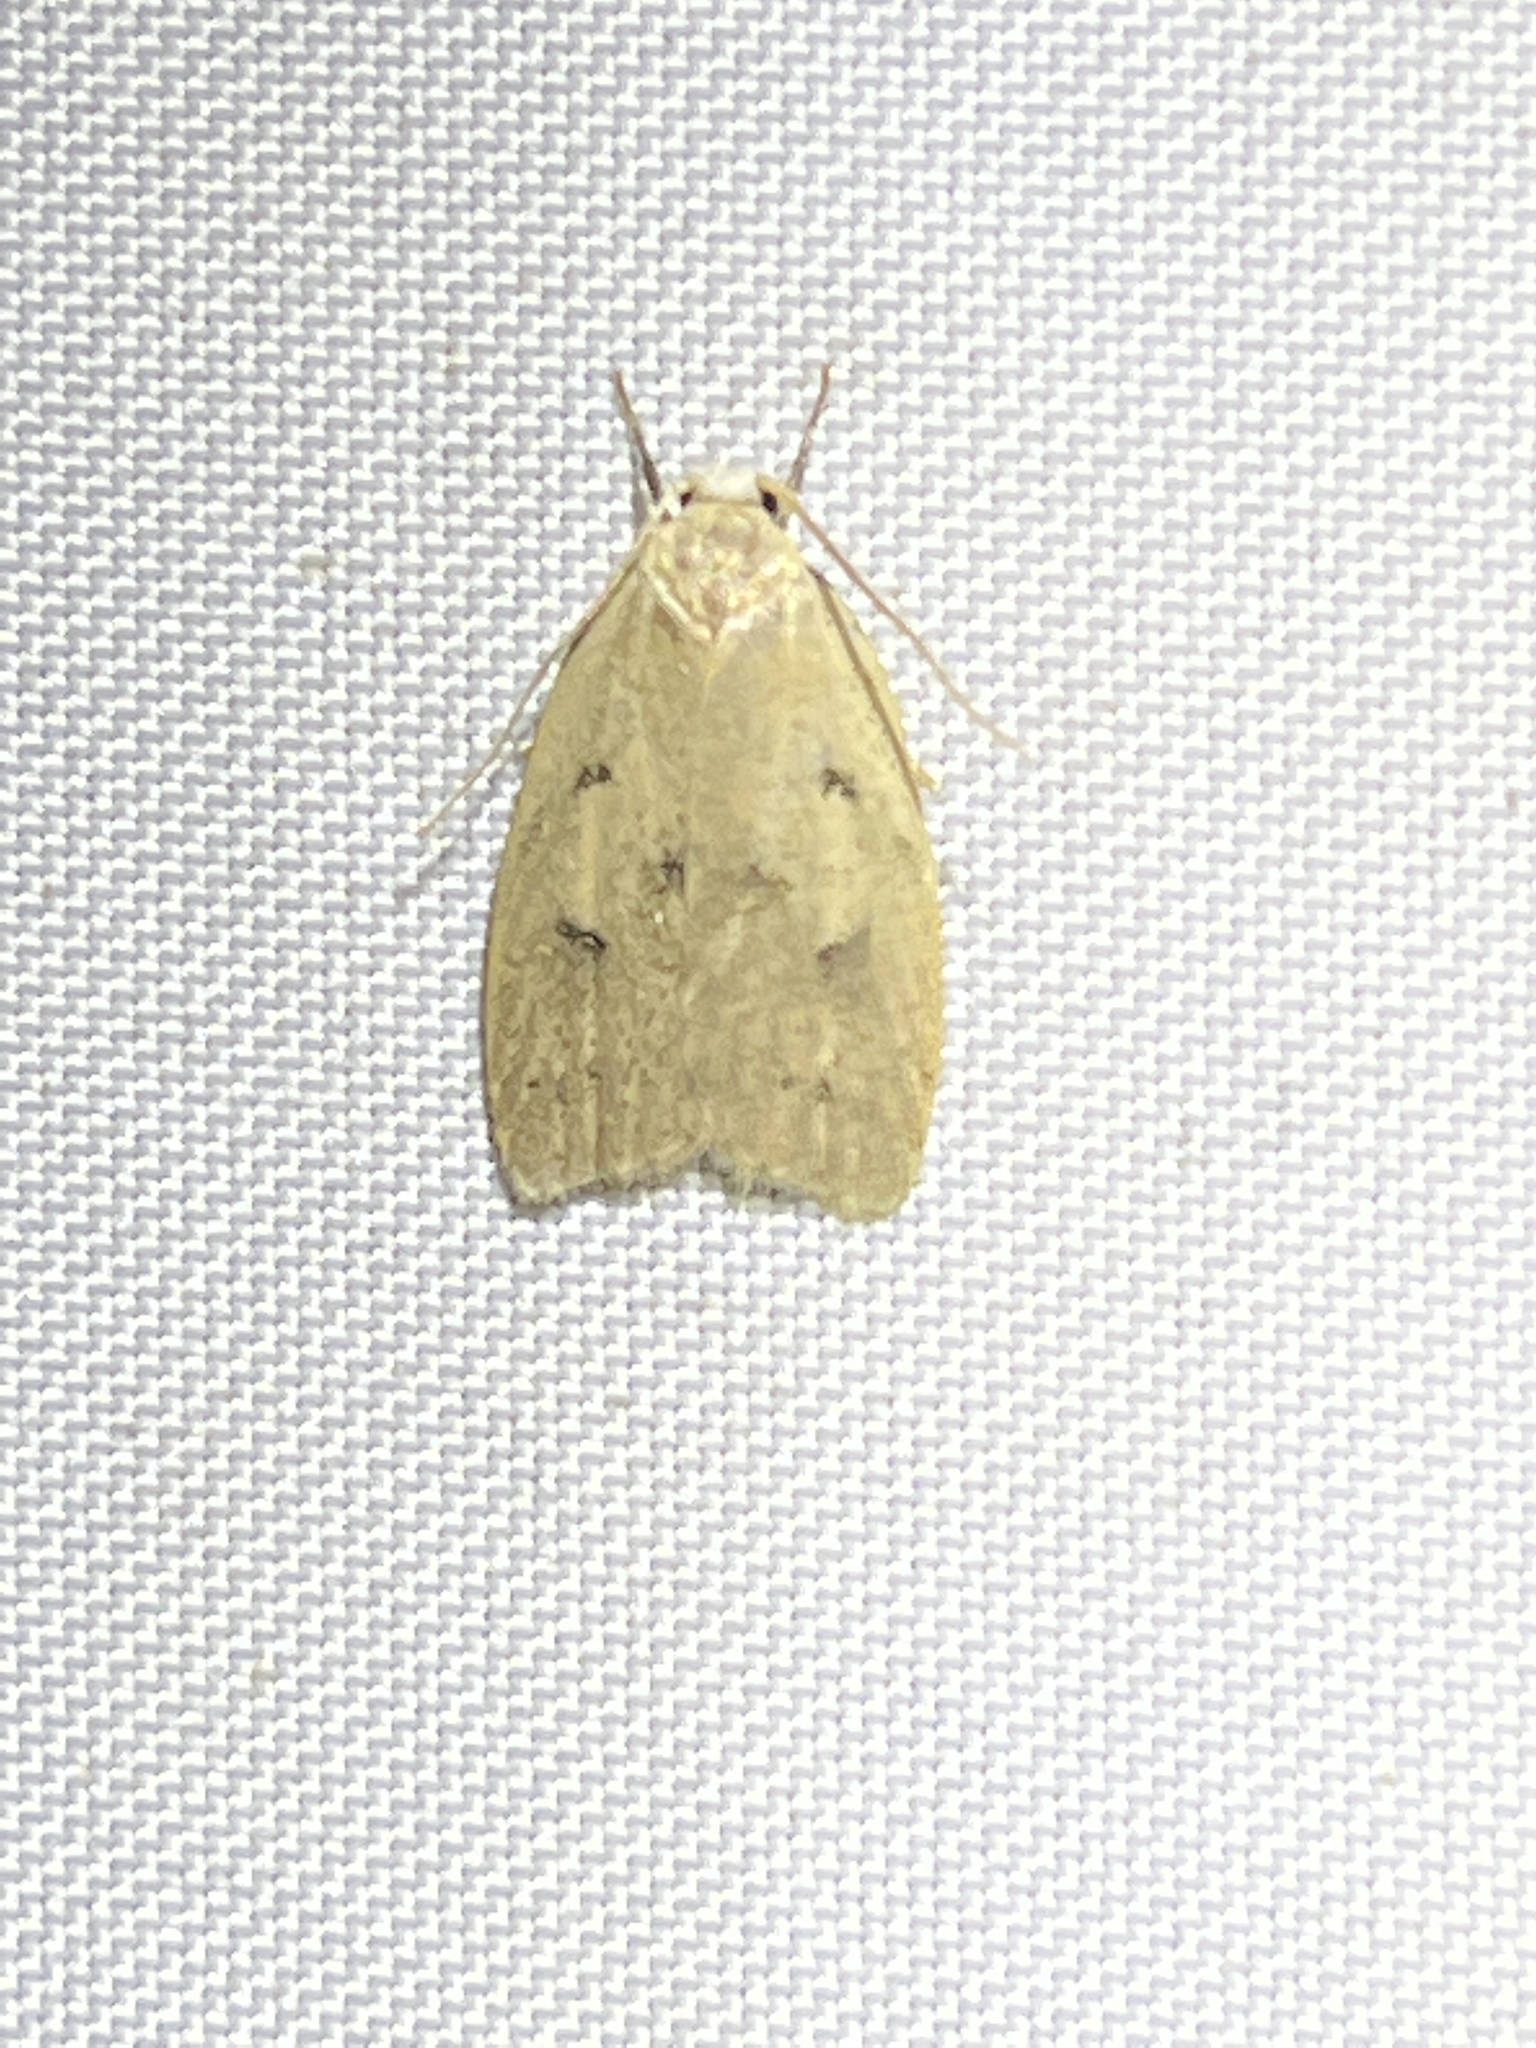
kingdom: Animalia
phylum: Arthropoda
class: Insecta
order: Lepidoptera
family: Peleopodidae
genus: Machimia
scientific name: Machimia tentoriferella
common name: Gold-striped leaftier moth
